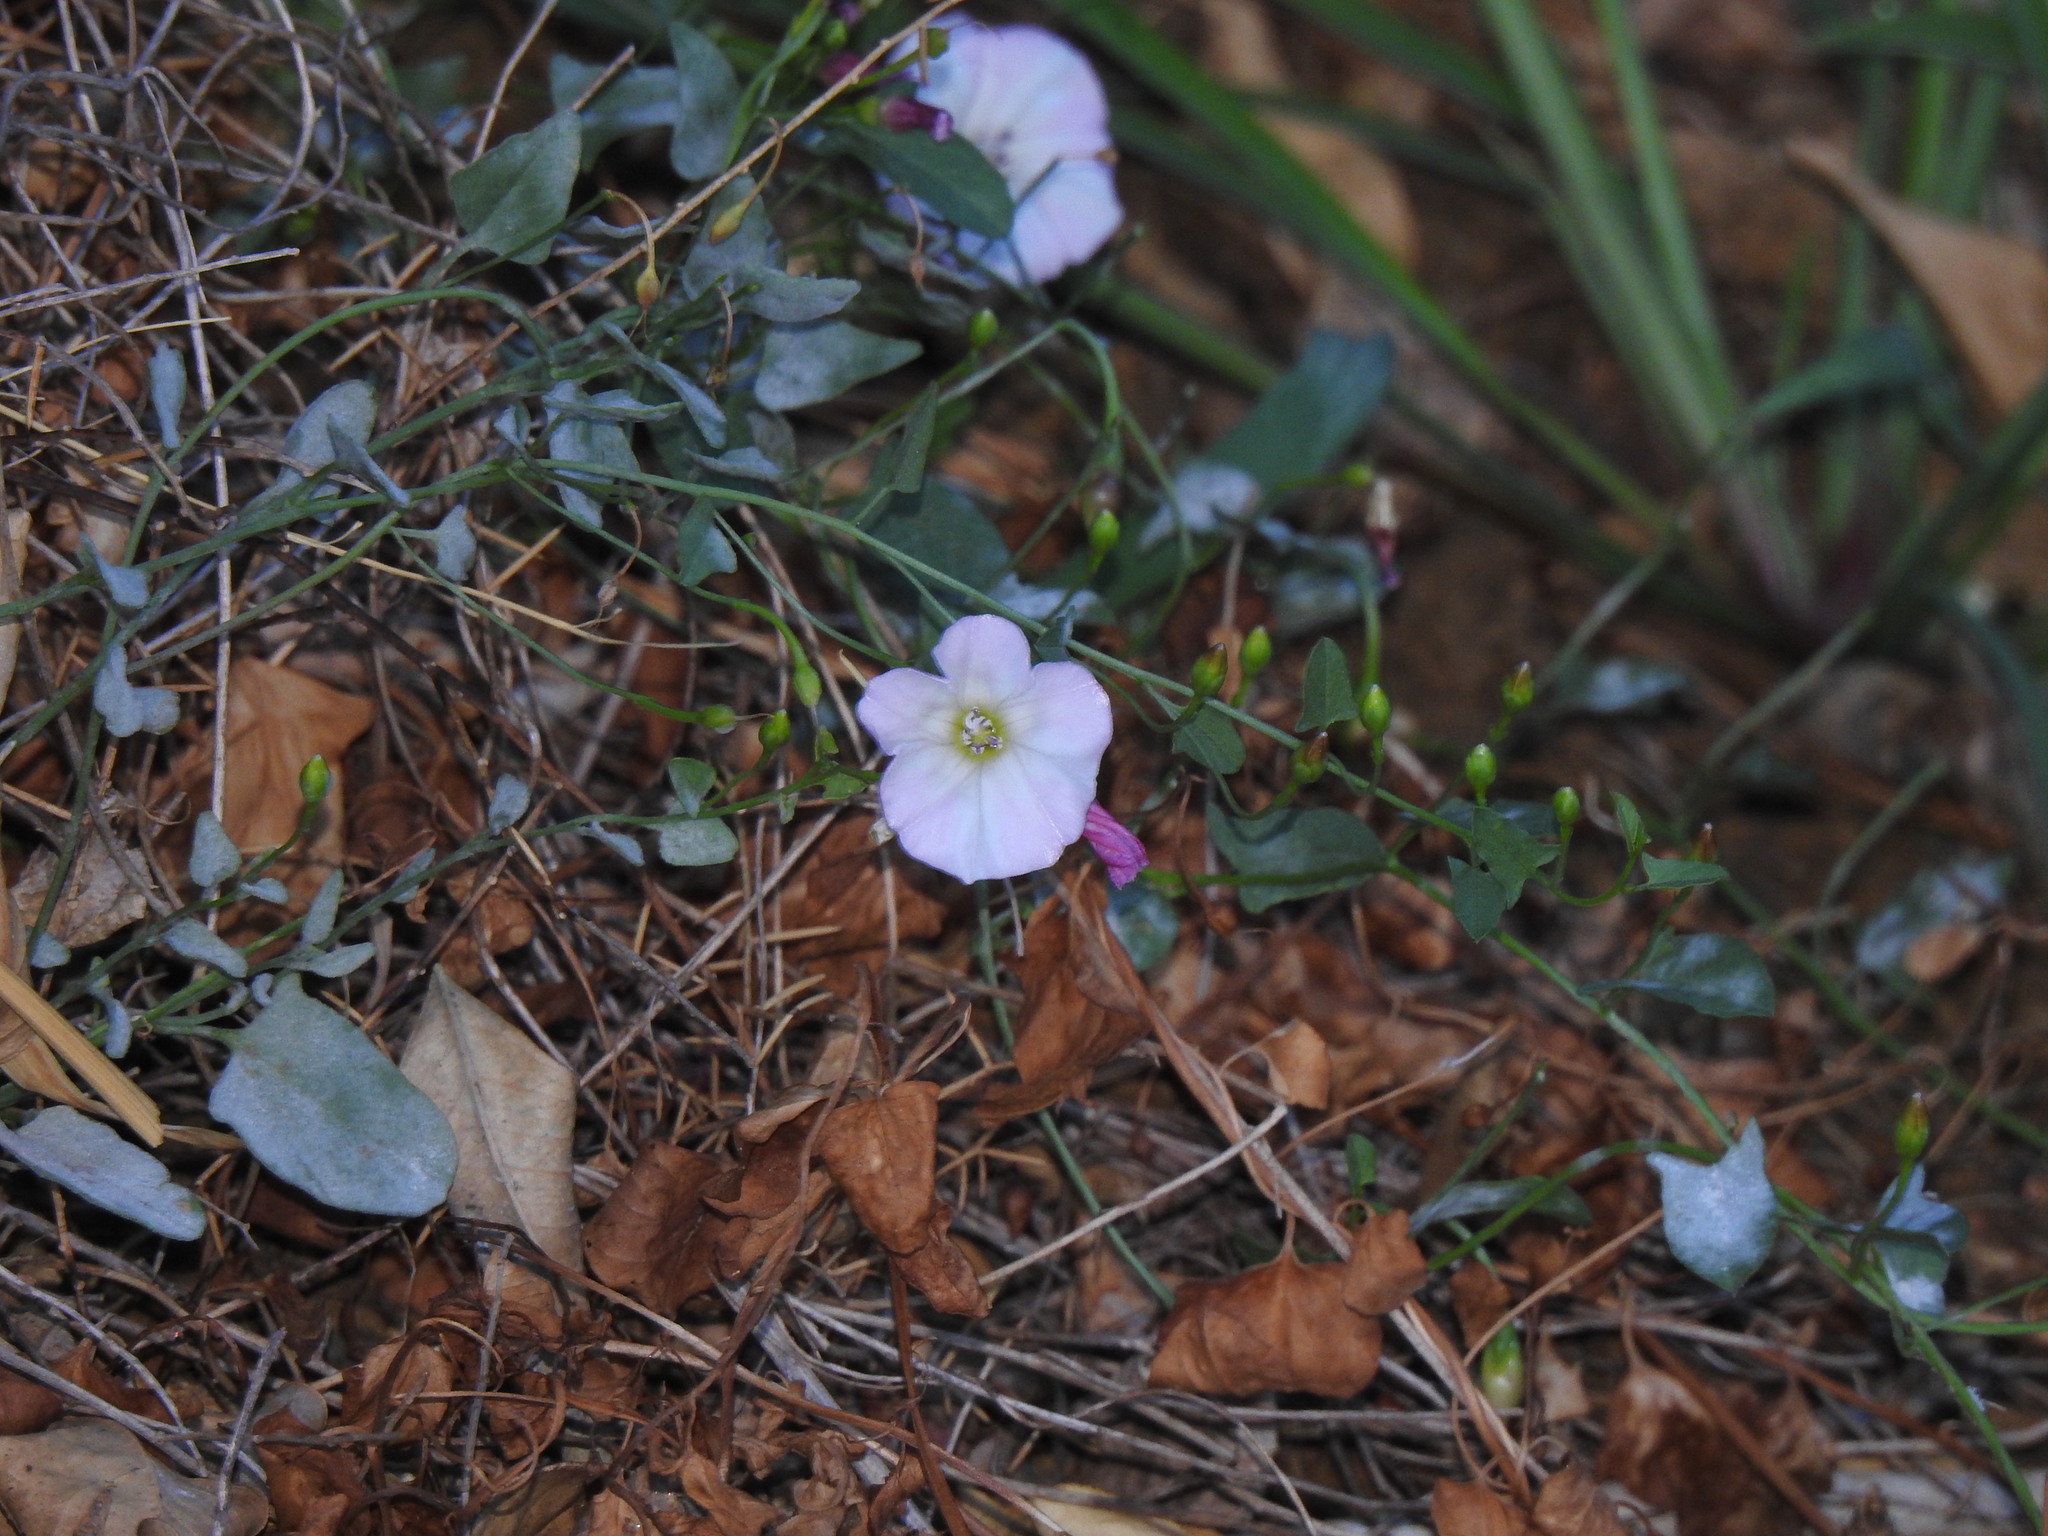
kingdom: Plantae
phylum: Tracheophyta
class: Magnoliopsida
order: Solanales
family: Convolvulaceae
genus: Convolvulus
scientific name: Convolvulus arvensis
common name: Field bindweed
